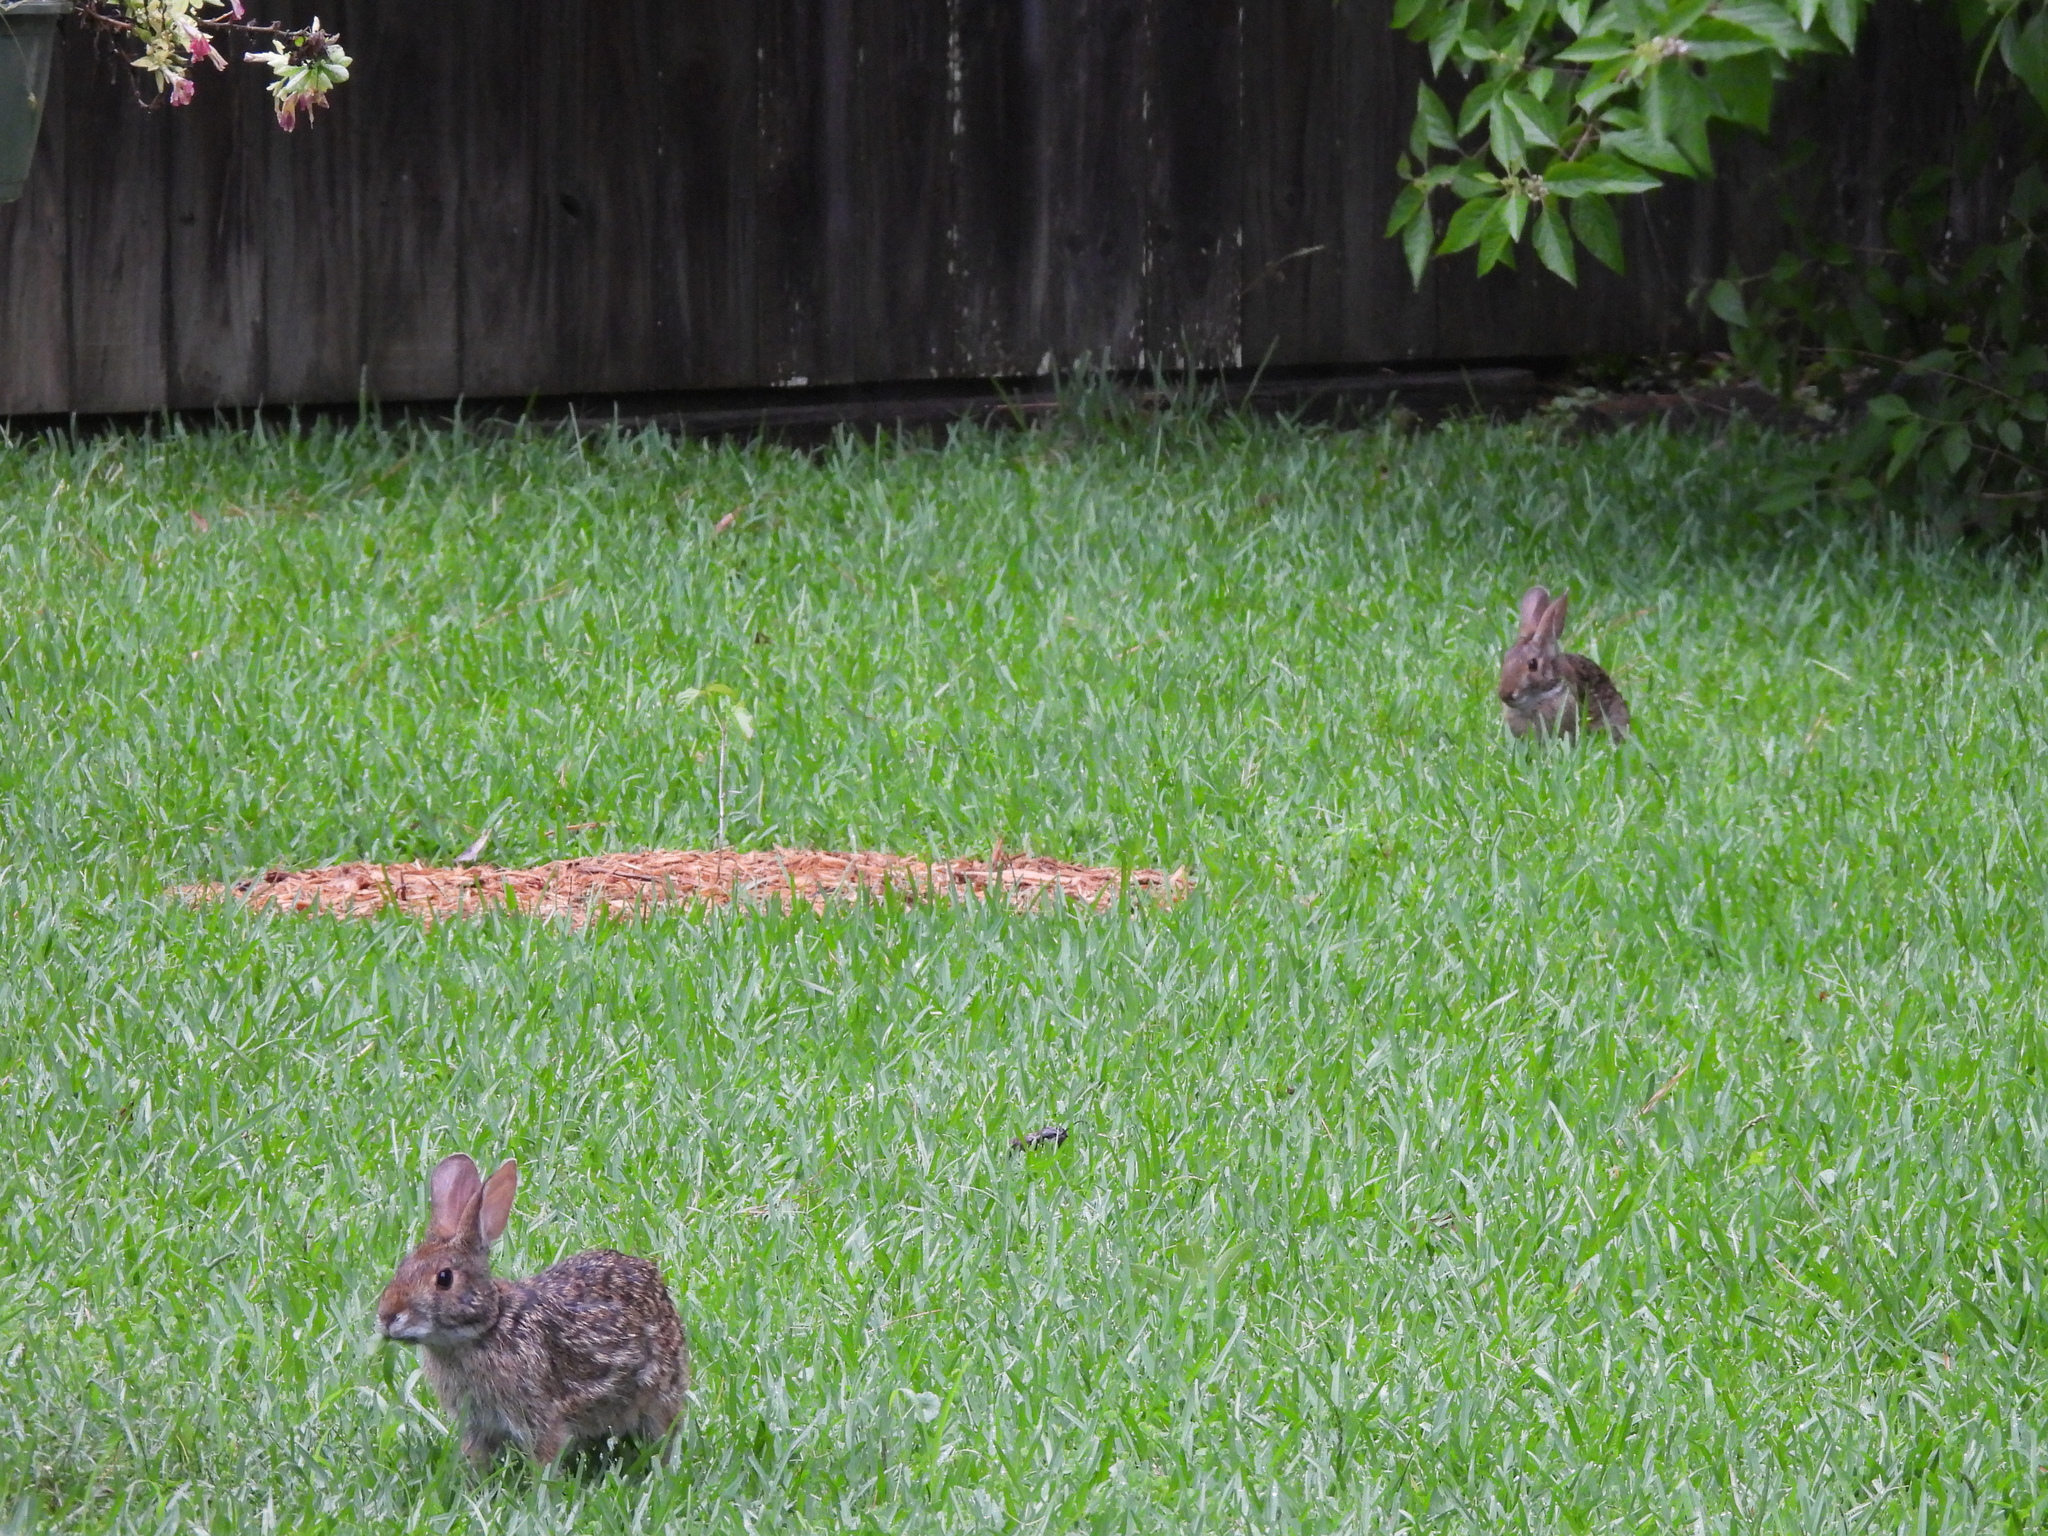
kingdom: Animalia
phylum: Chordata
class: Mammalia
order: Lagomorpha
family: Leporidae
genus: Sylvilagus
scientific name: Sylvilagus aquaticus
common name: Swamp rabbit
